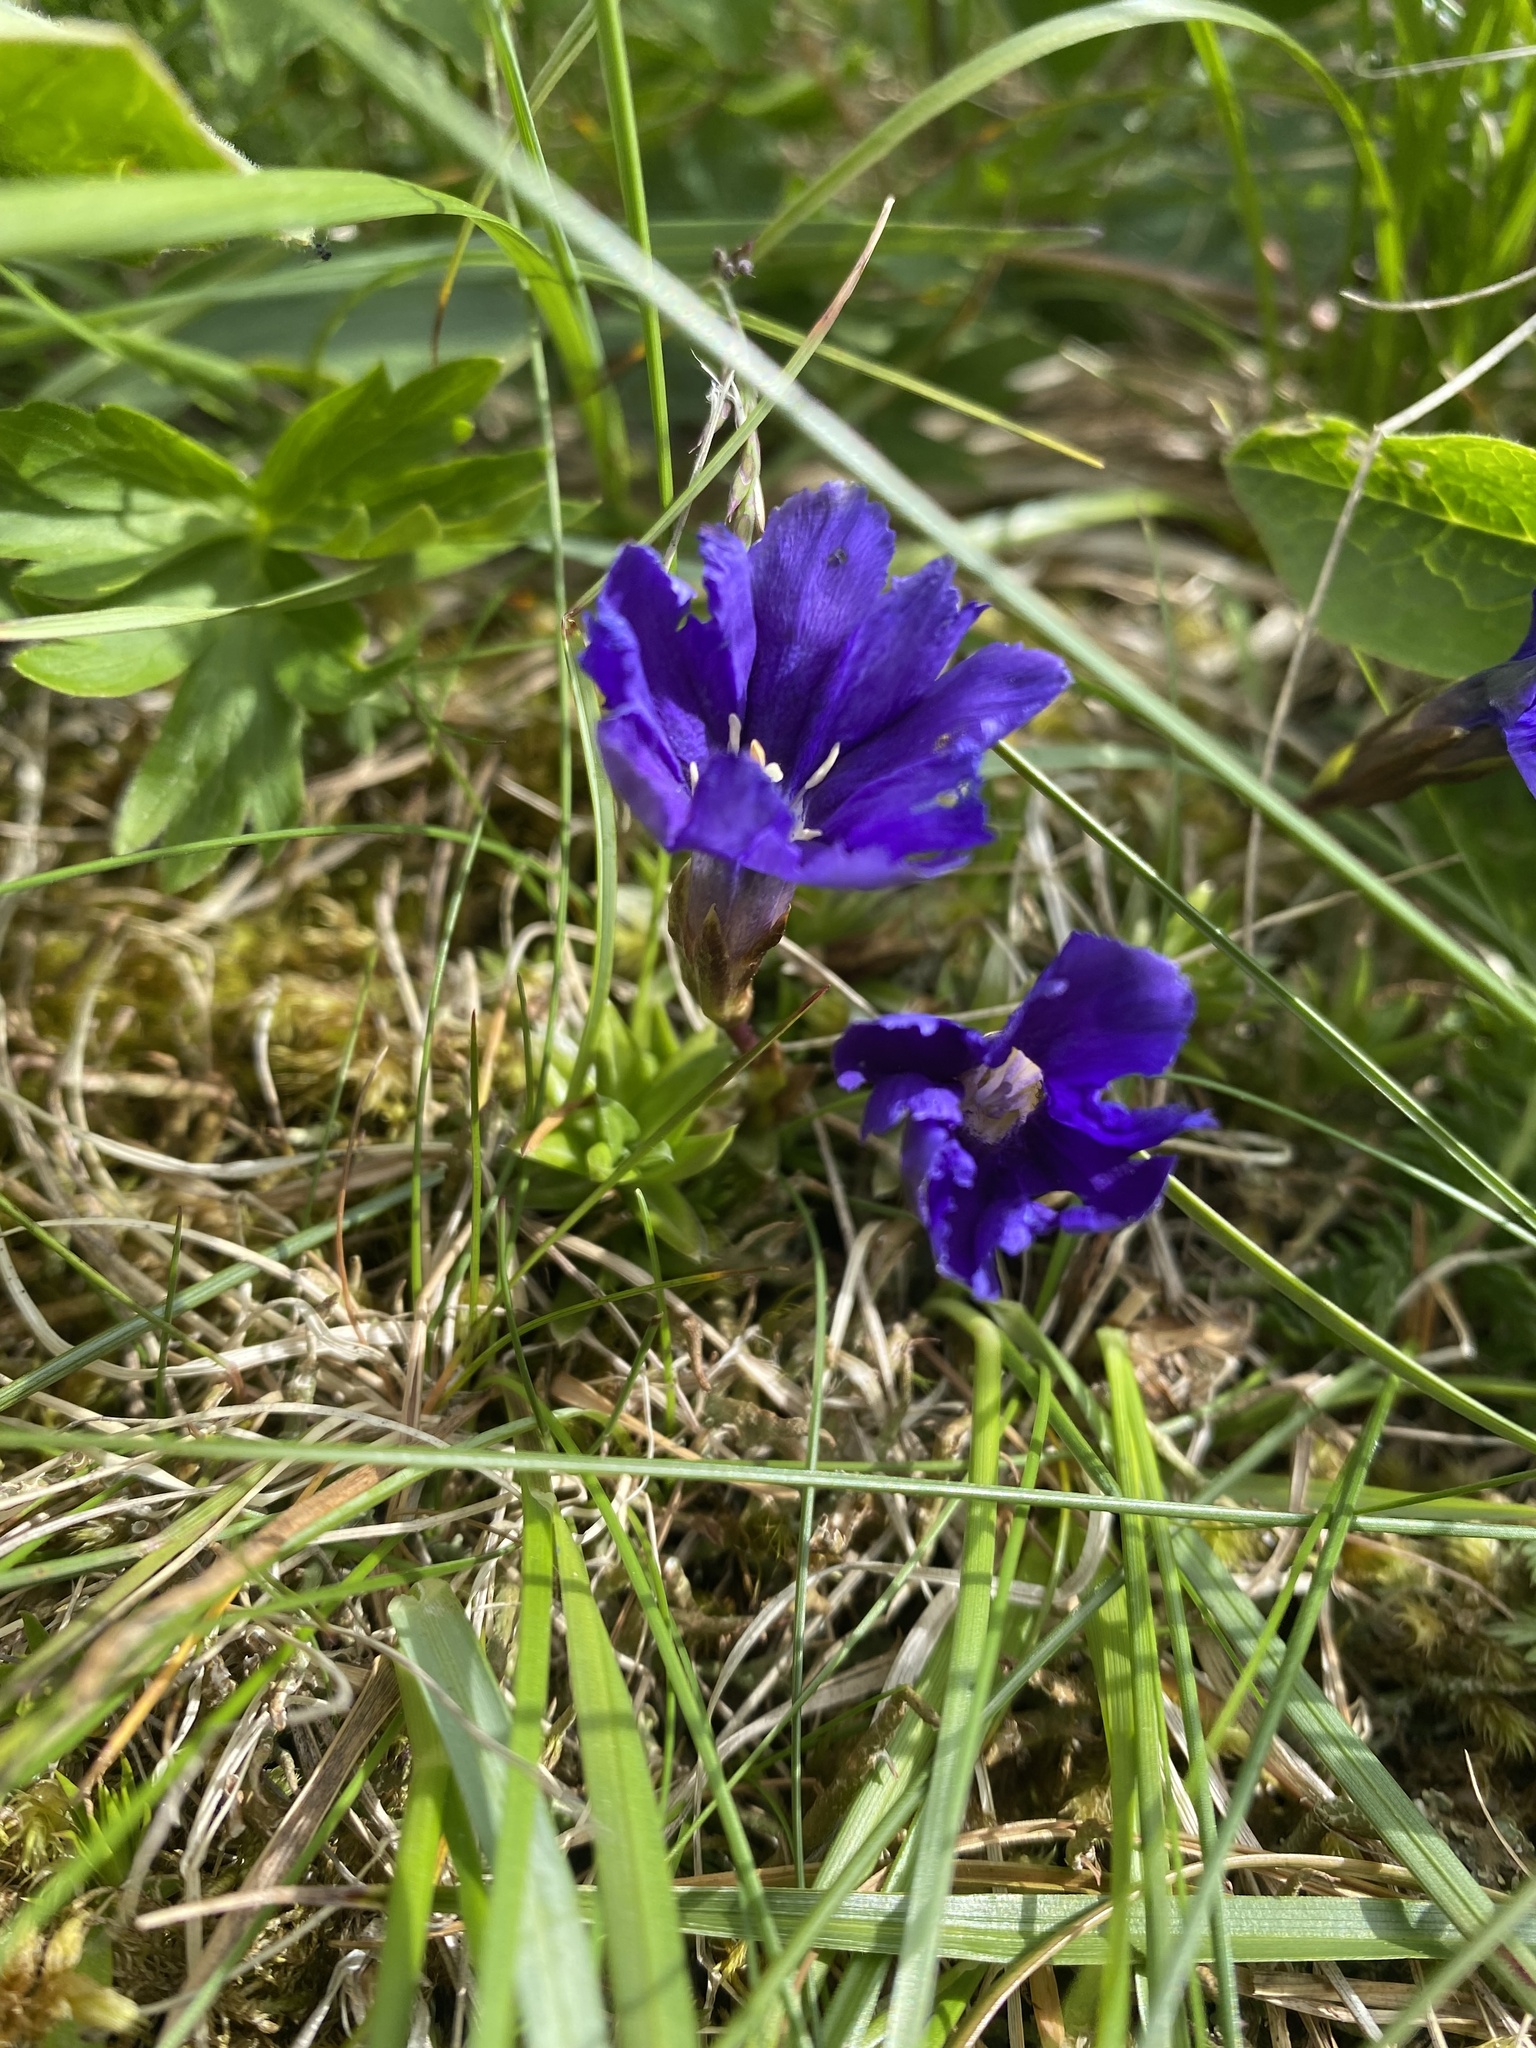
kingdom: Plantae
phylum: Tracheophyta
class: Magnoliopsida
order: Gentianales
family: Gentianaceae
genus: Gentiana
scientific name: Gentiana dshimilensis
